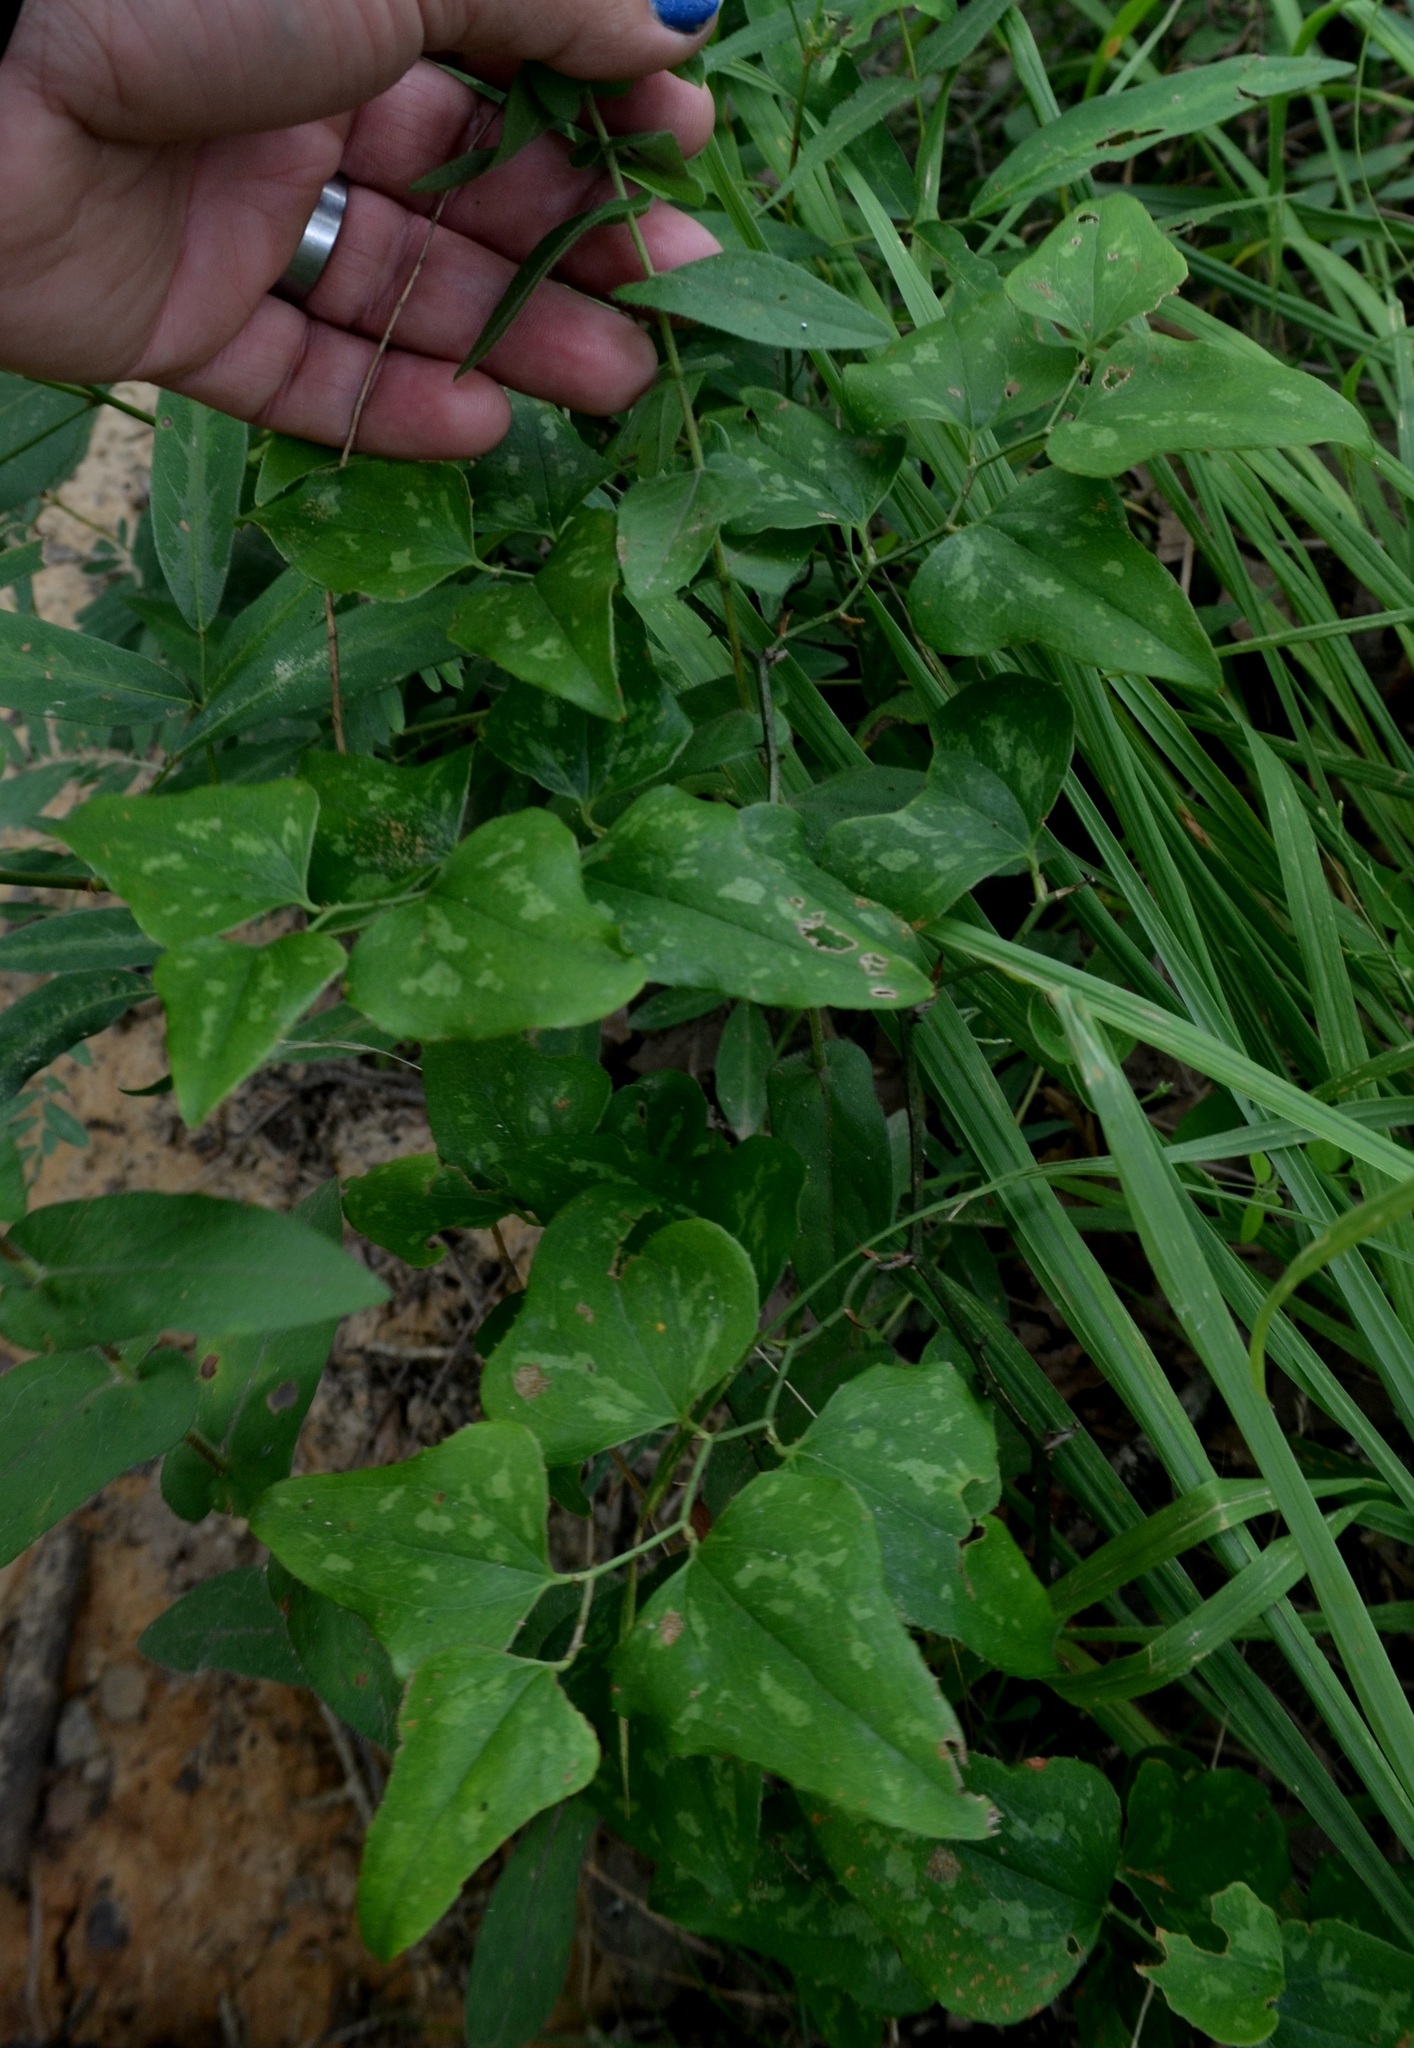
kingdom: Plantae
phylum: Tracheophyta
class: Liliopsida
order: Liliales
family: Smilacaceae
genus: Smilax
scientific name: Smilax bona-nox
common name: Catbrier
